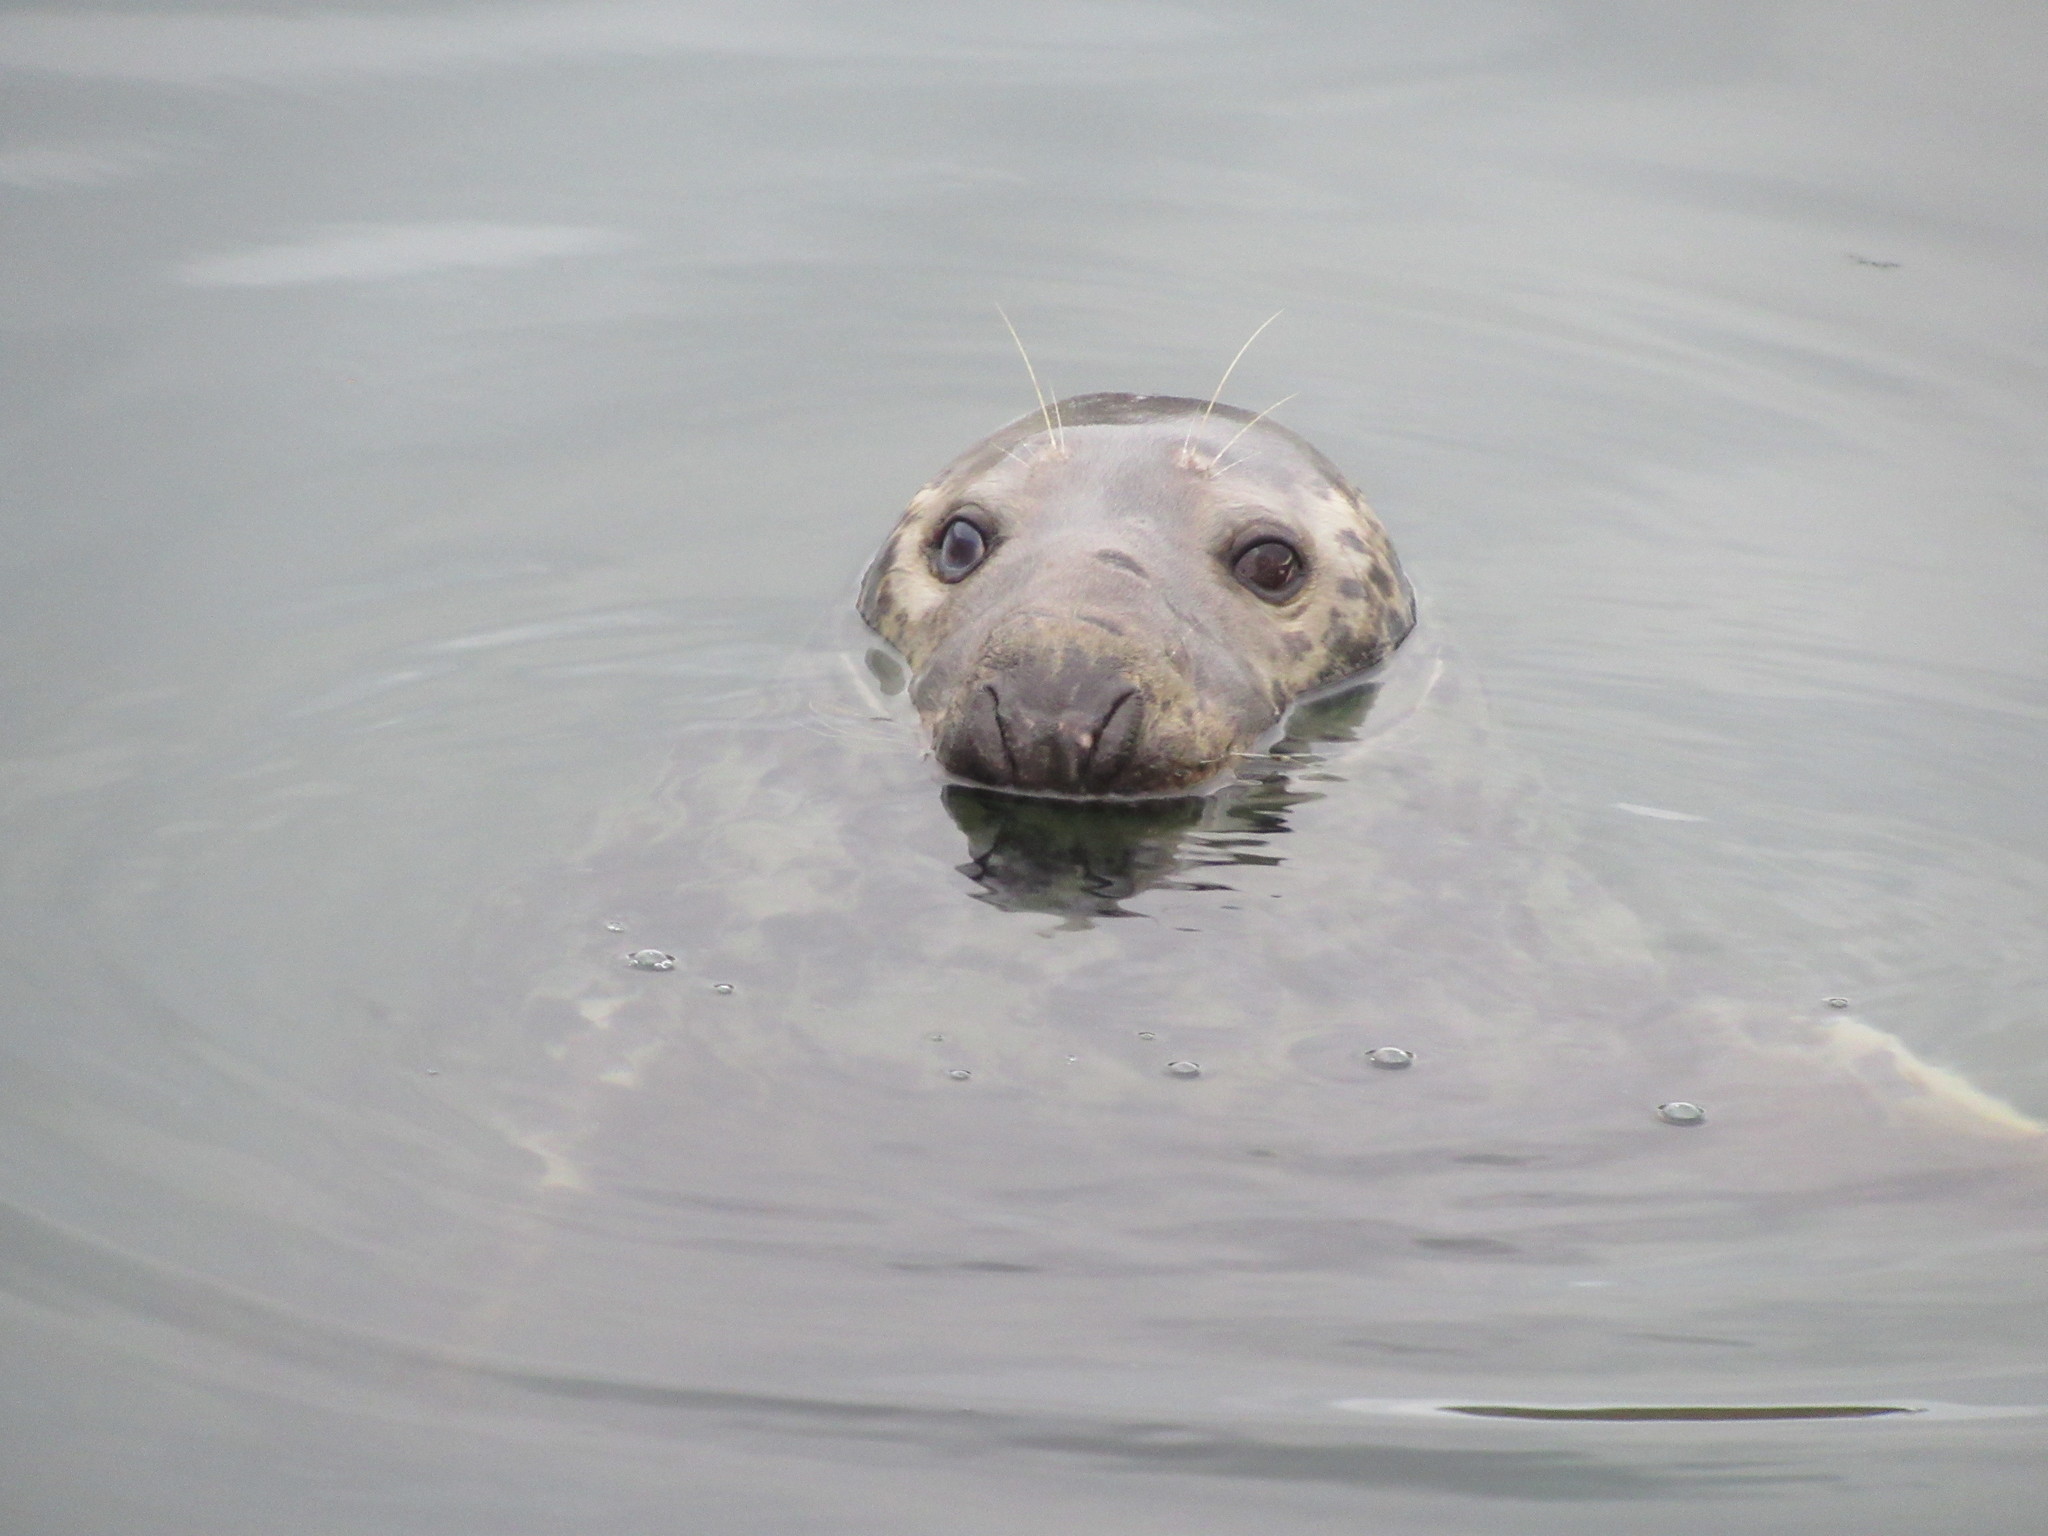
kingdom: Animalia
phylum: Chordata
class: Mammalia
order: Carnivora
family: Phocidae
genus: Halichoerus
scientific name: Halichoerus grypus
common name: Grey seal
